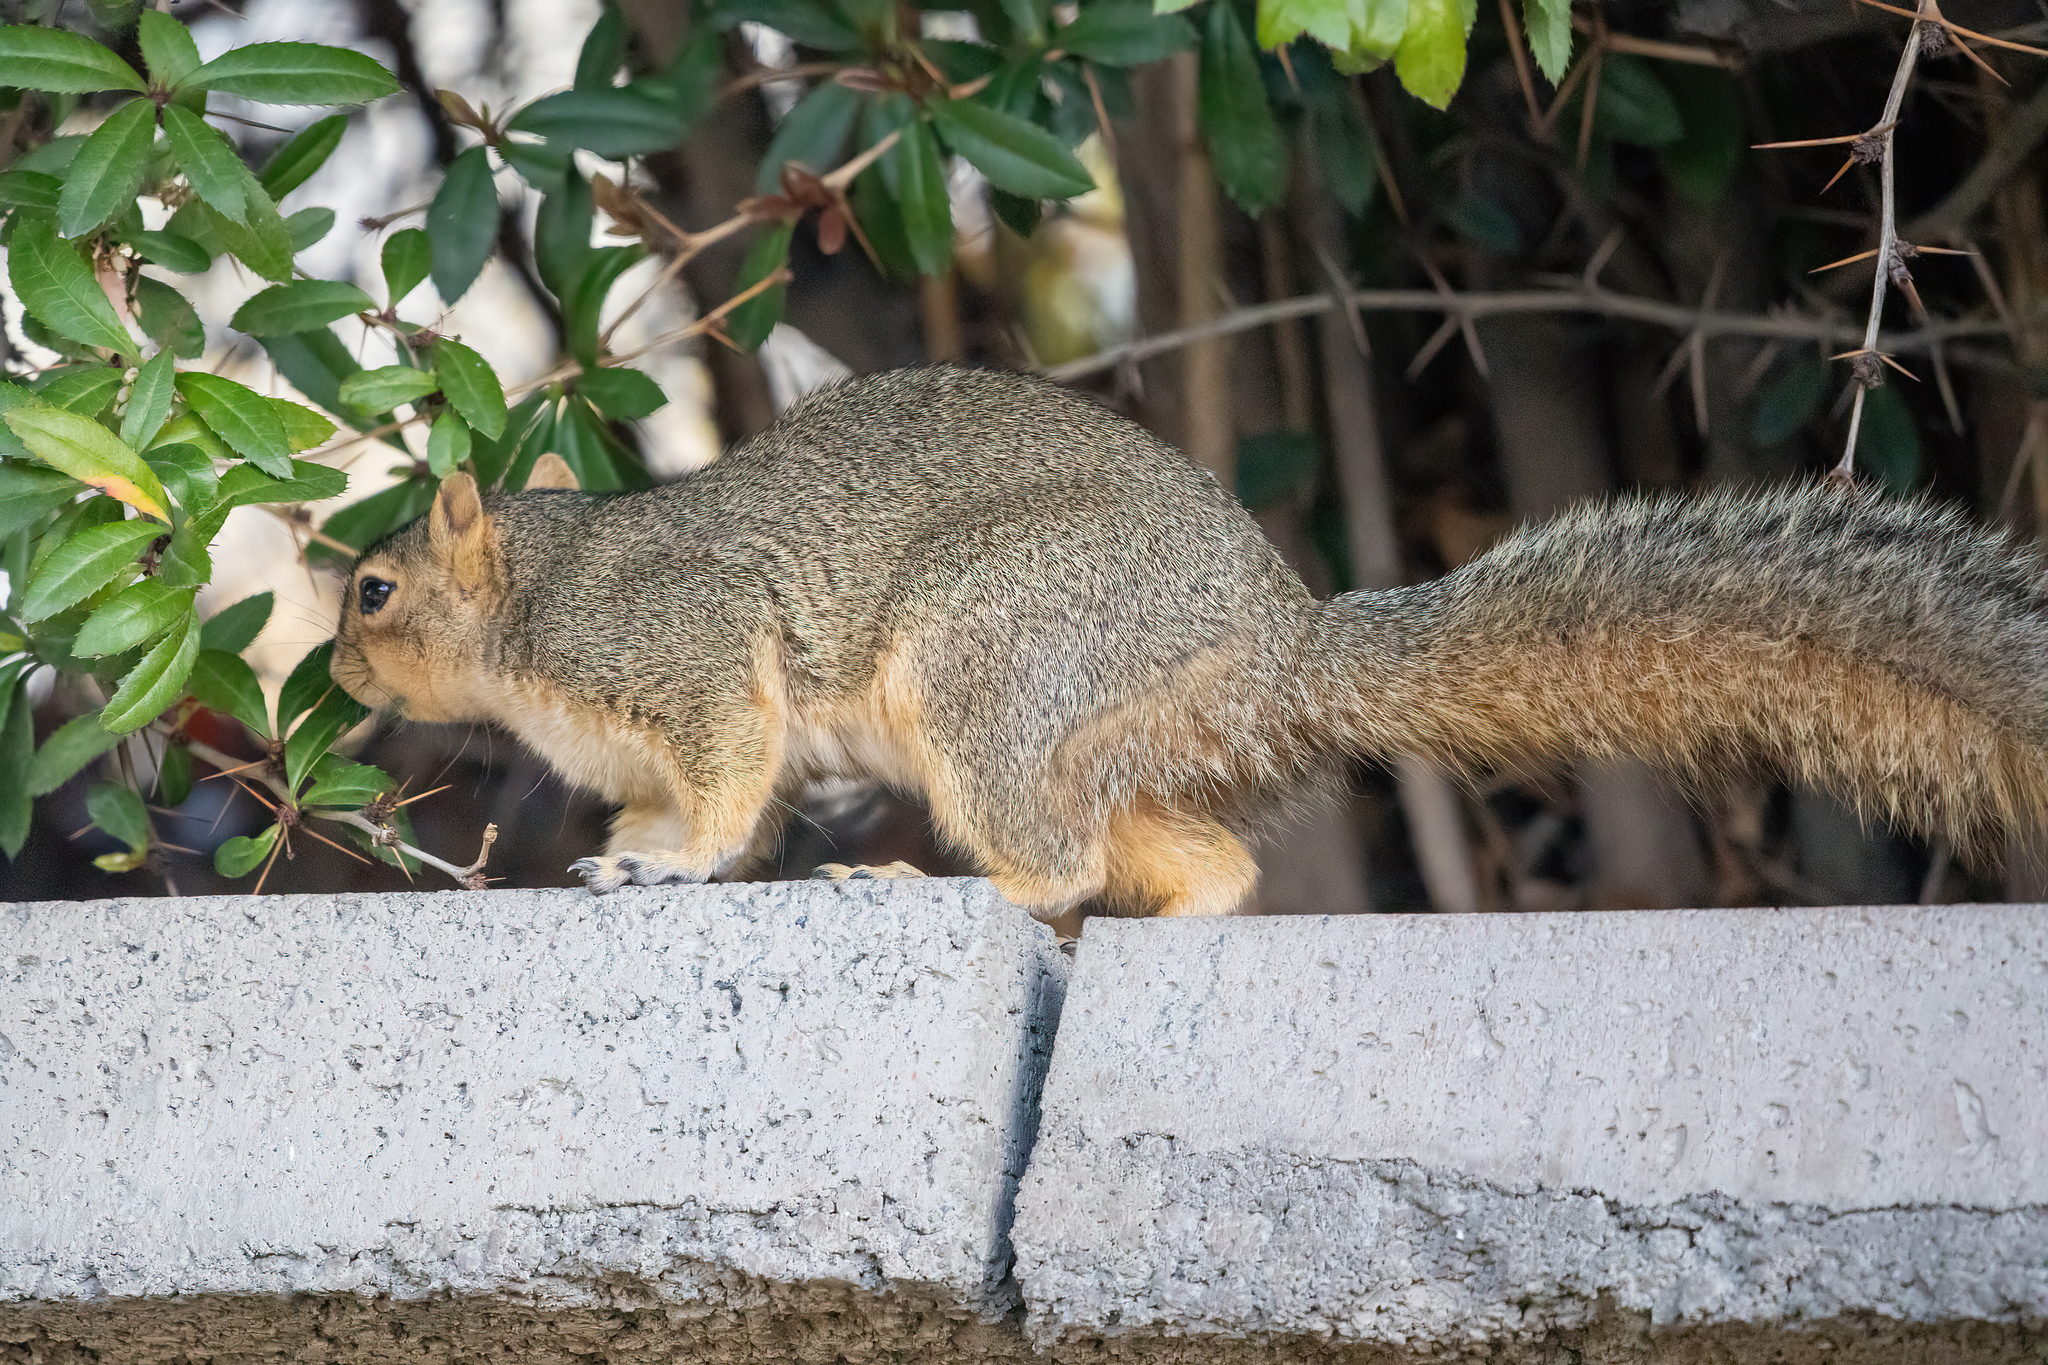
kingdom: Animalia
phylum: Chordata
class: Mammalia
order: Rodentia
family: Sciuridae
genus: Sciurus
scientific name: Sciurus niger
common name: Fox squirrel
